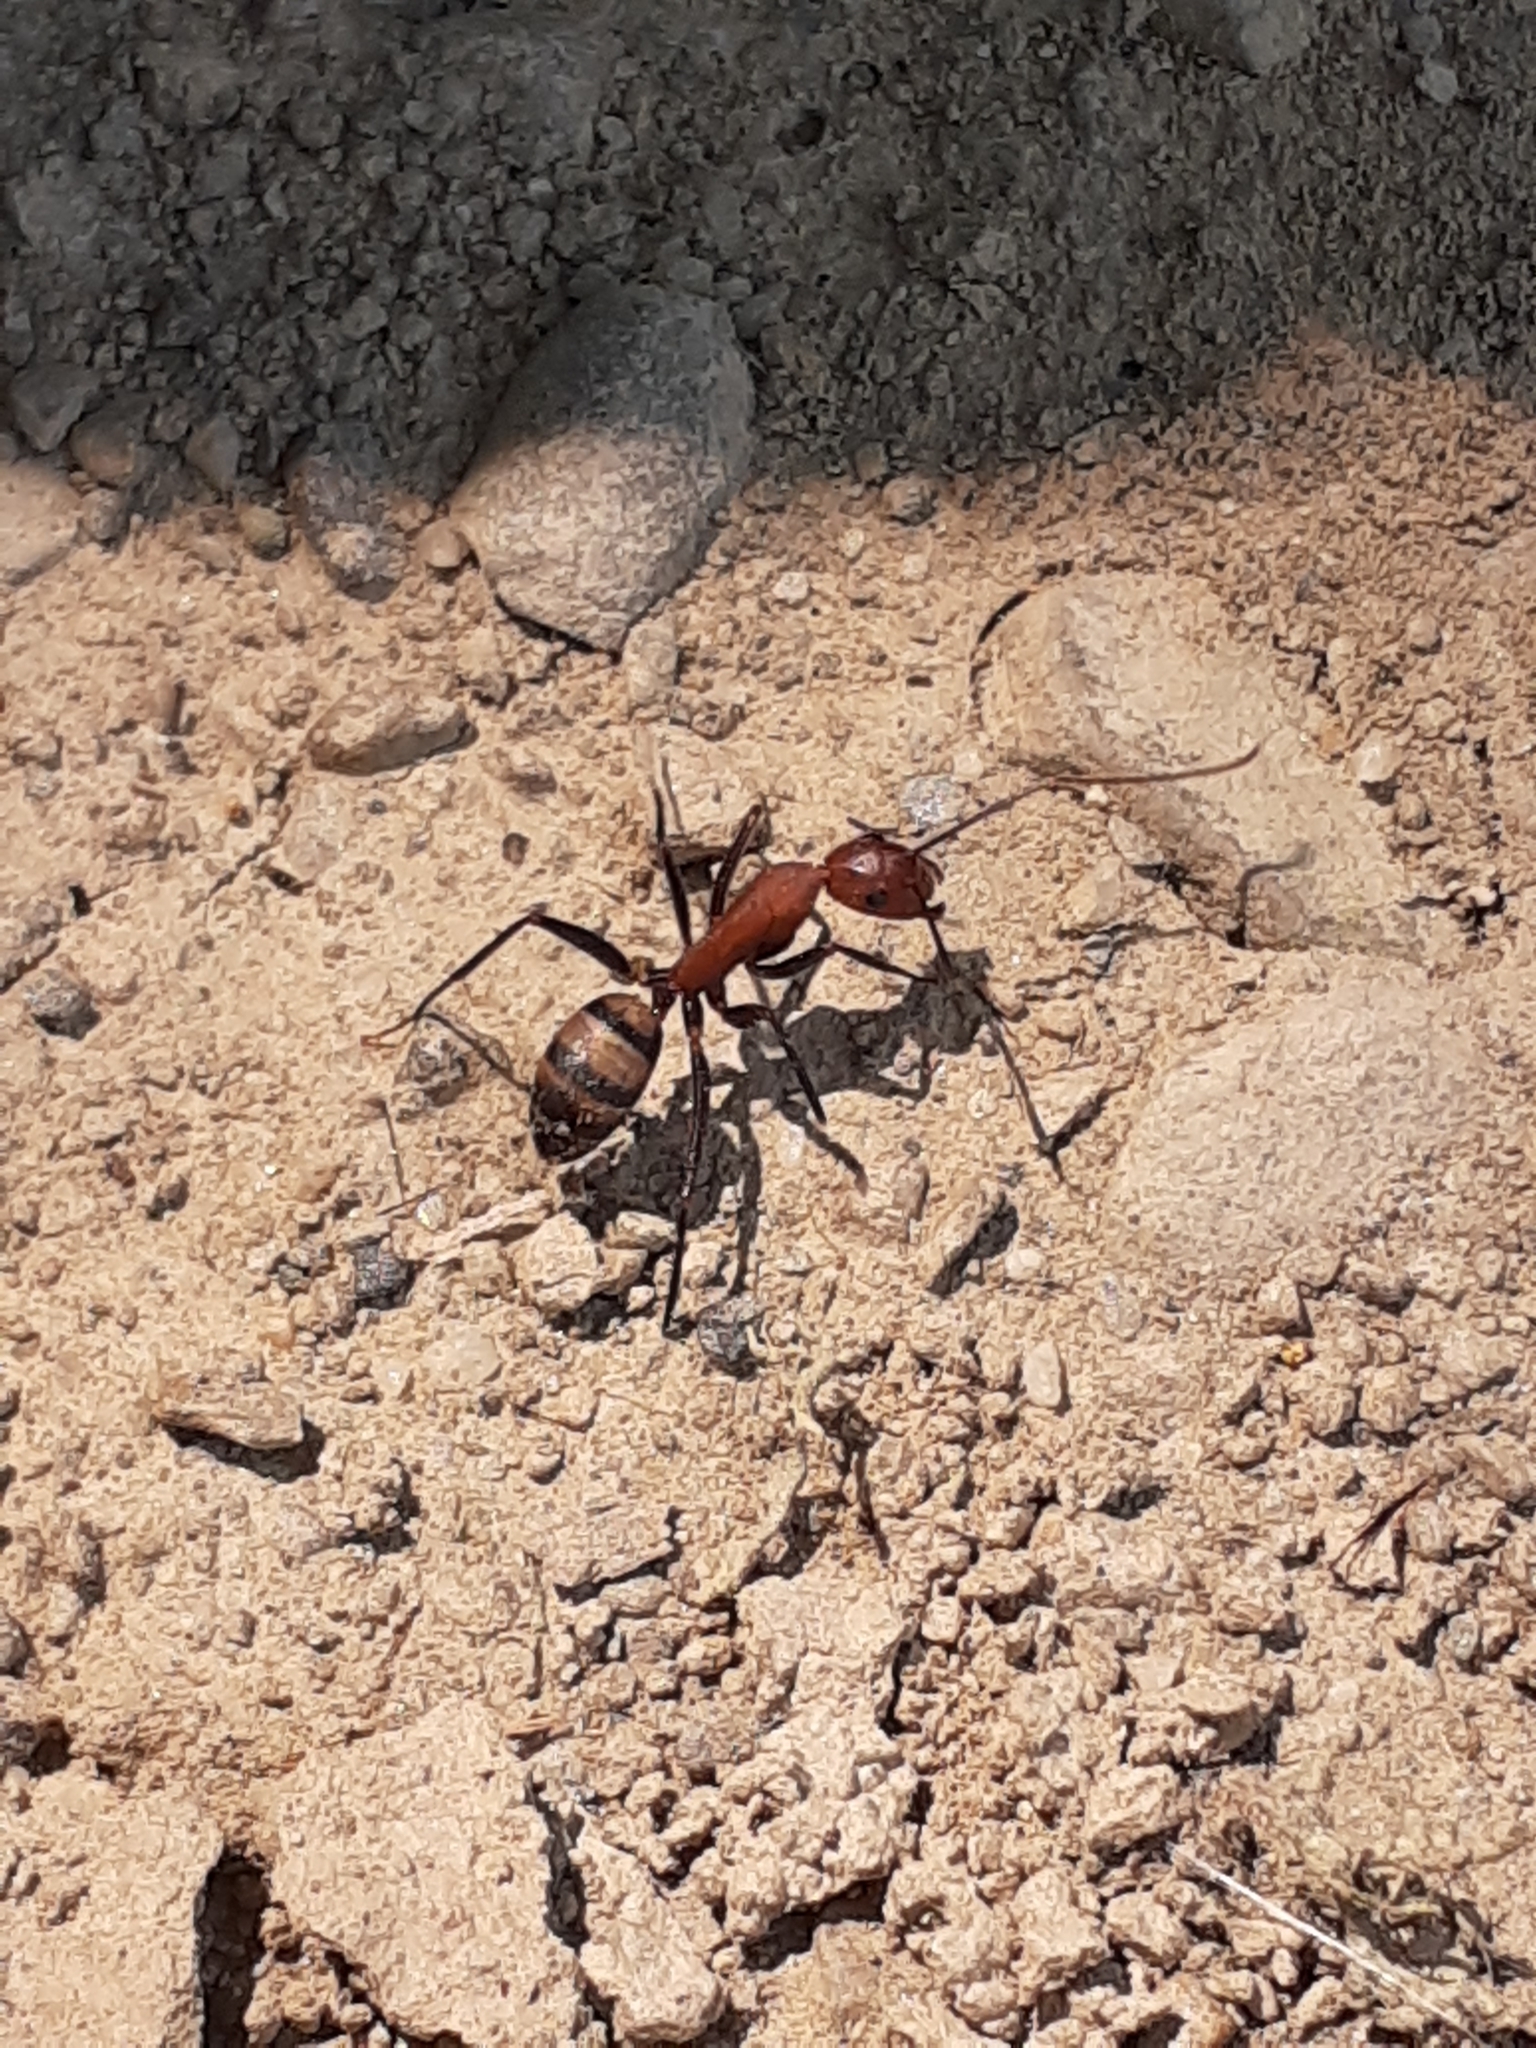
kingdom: Animalia
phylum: Arthropoda
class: Insecta
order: Hymenoptera
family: Formicidae
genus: Camponotus
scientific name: Camponotus habereri
